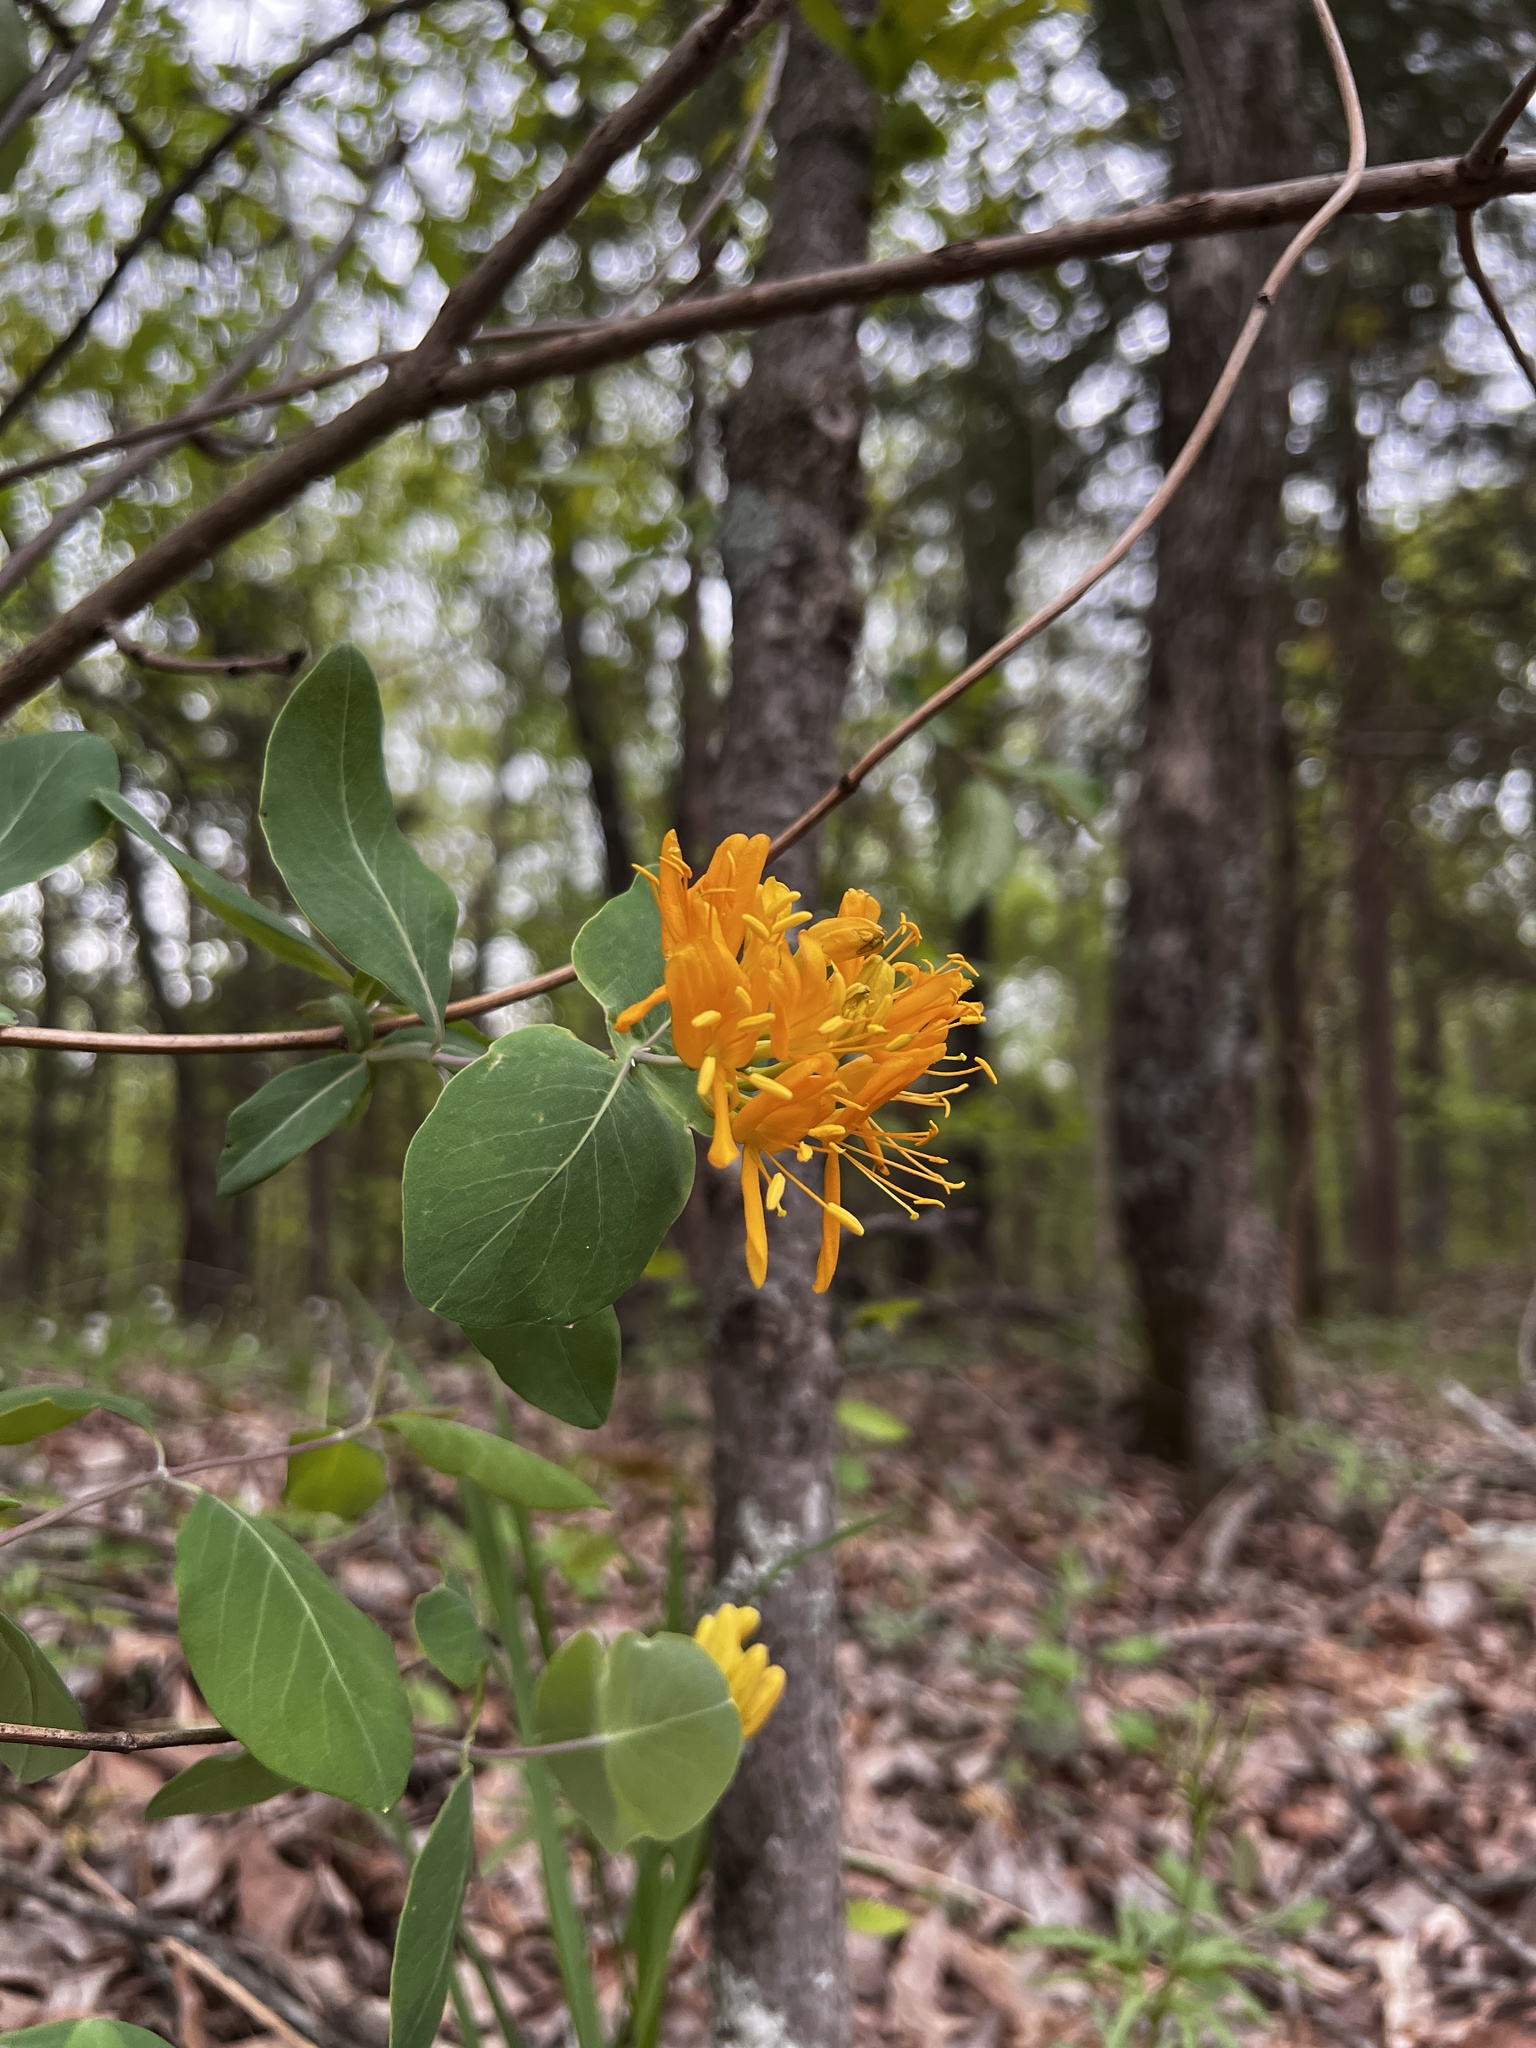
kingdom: Plantae
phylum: Tracheophyta
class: Magnoliopsida
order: Dipsacales
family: Caprifoliaceae
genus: Lonicera
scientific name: Lonicera flava
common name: Yellow honeysuckle
